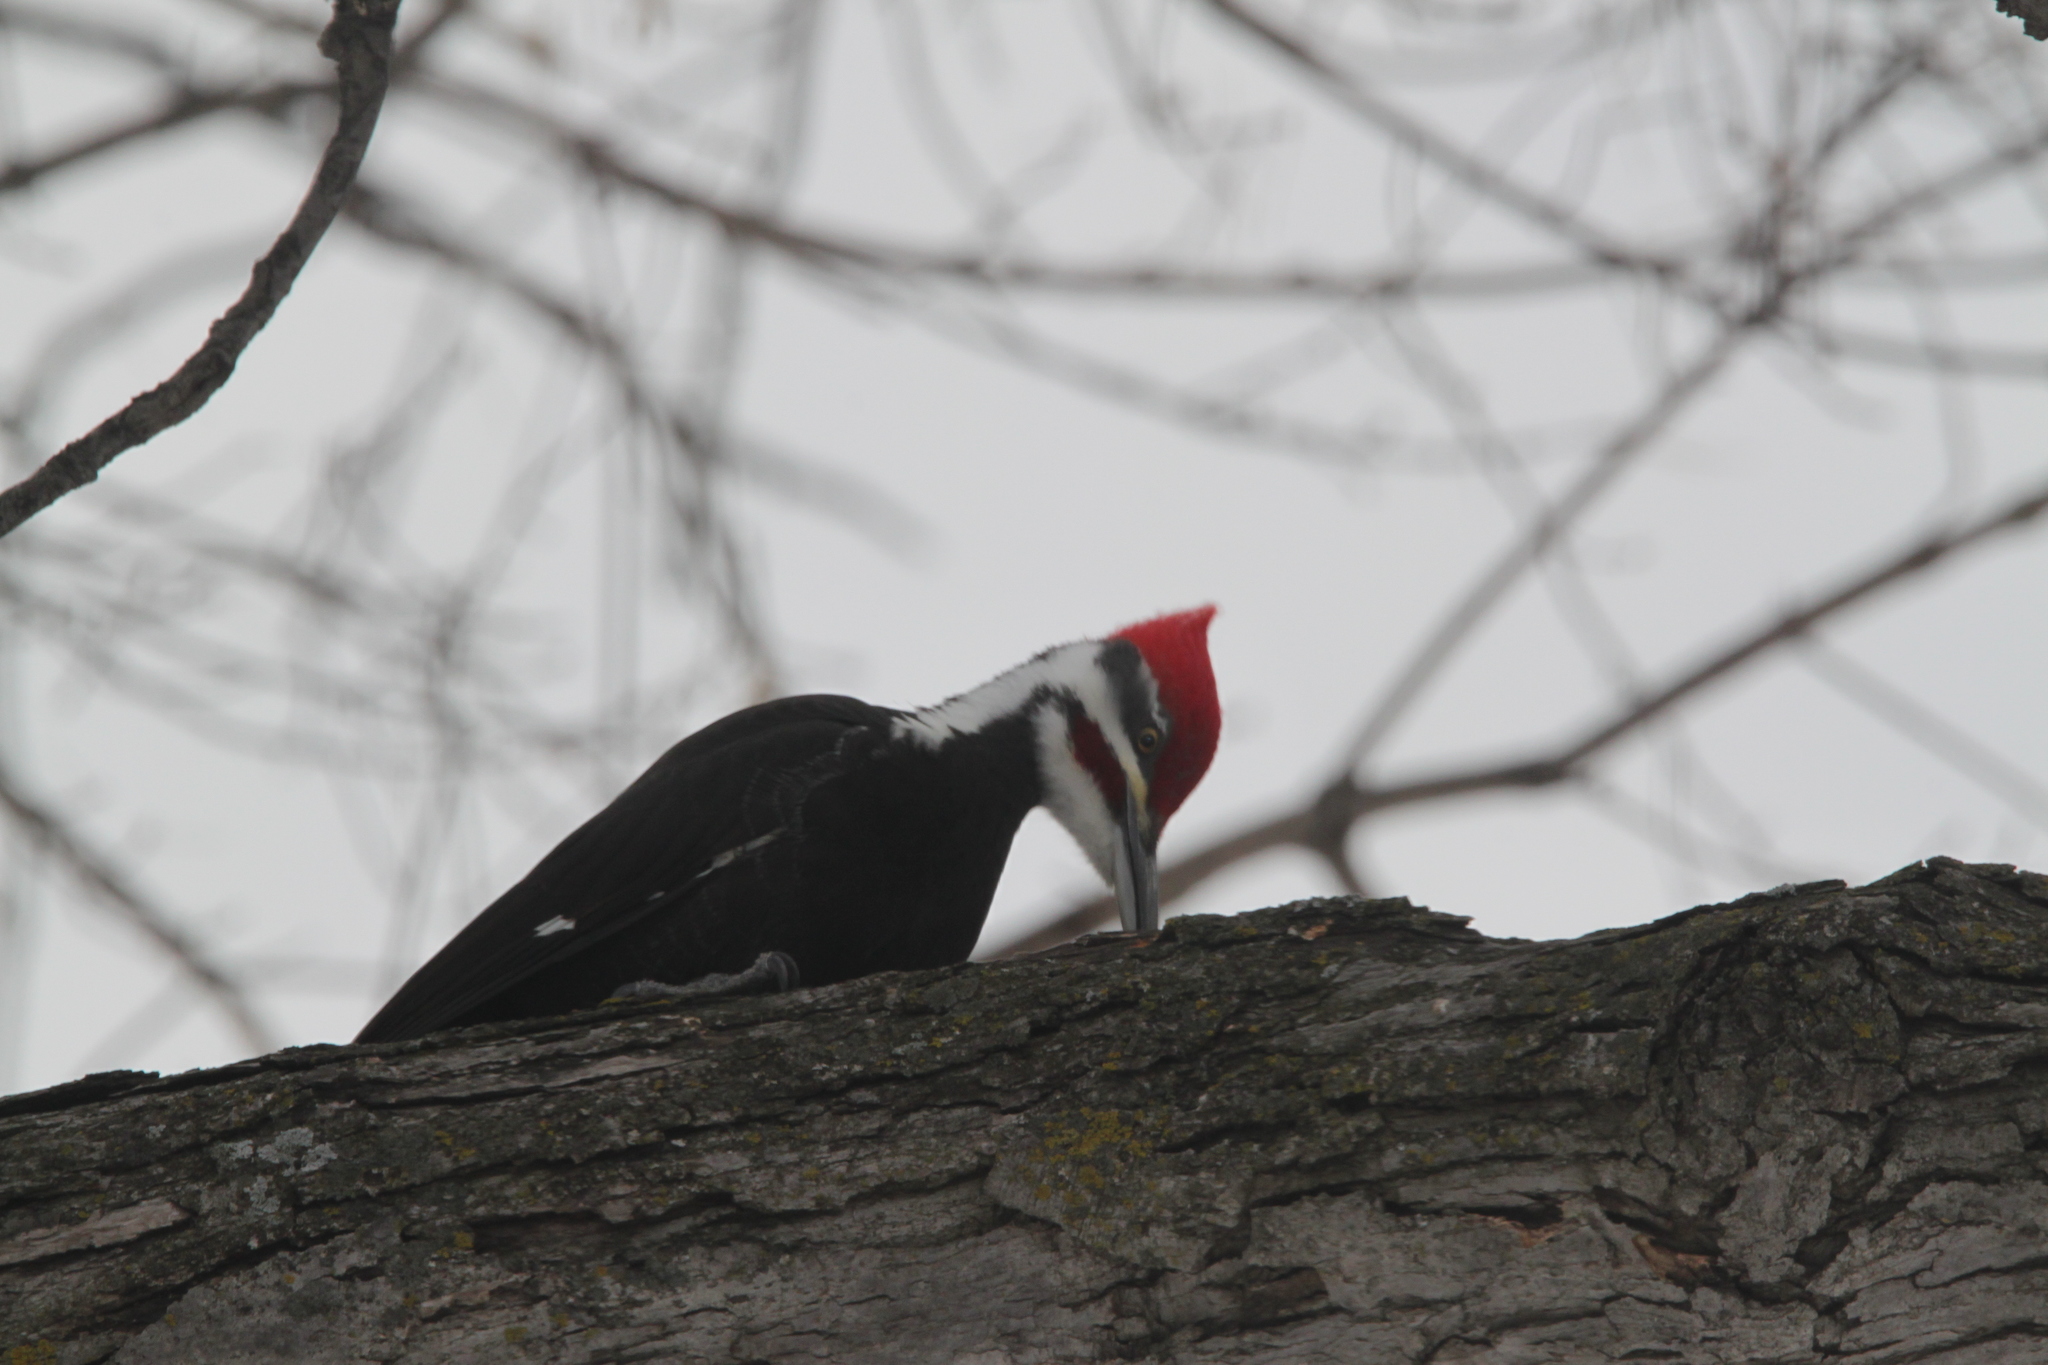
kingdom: Animalia
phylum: Chordata
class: Aves
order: Piciformes
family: Picidae
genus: Dryocopus
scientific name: Dryocopus pileatus
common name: Pileated woodpecker
